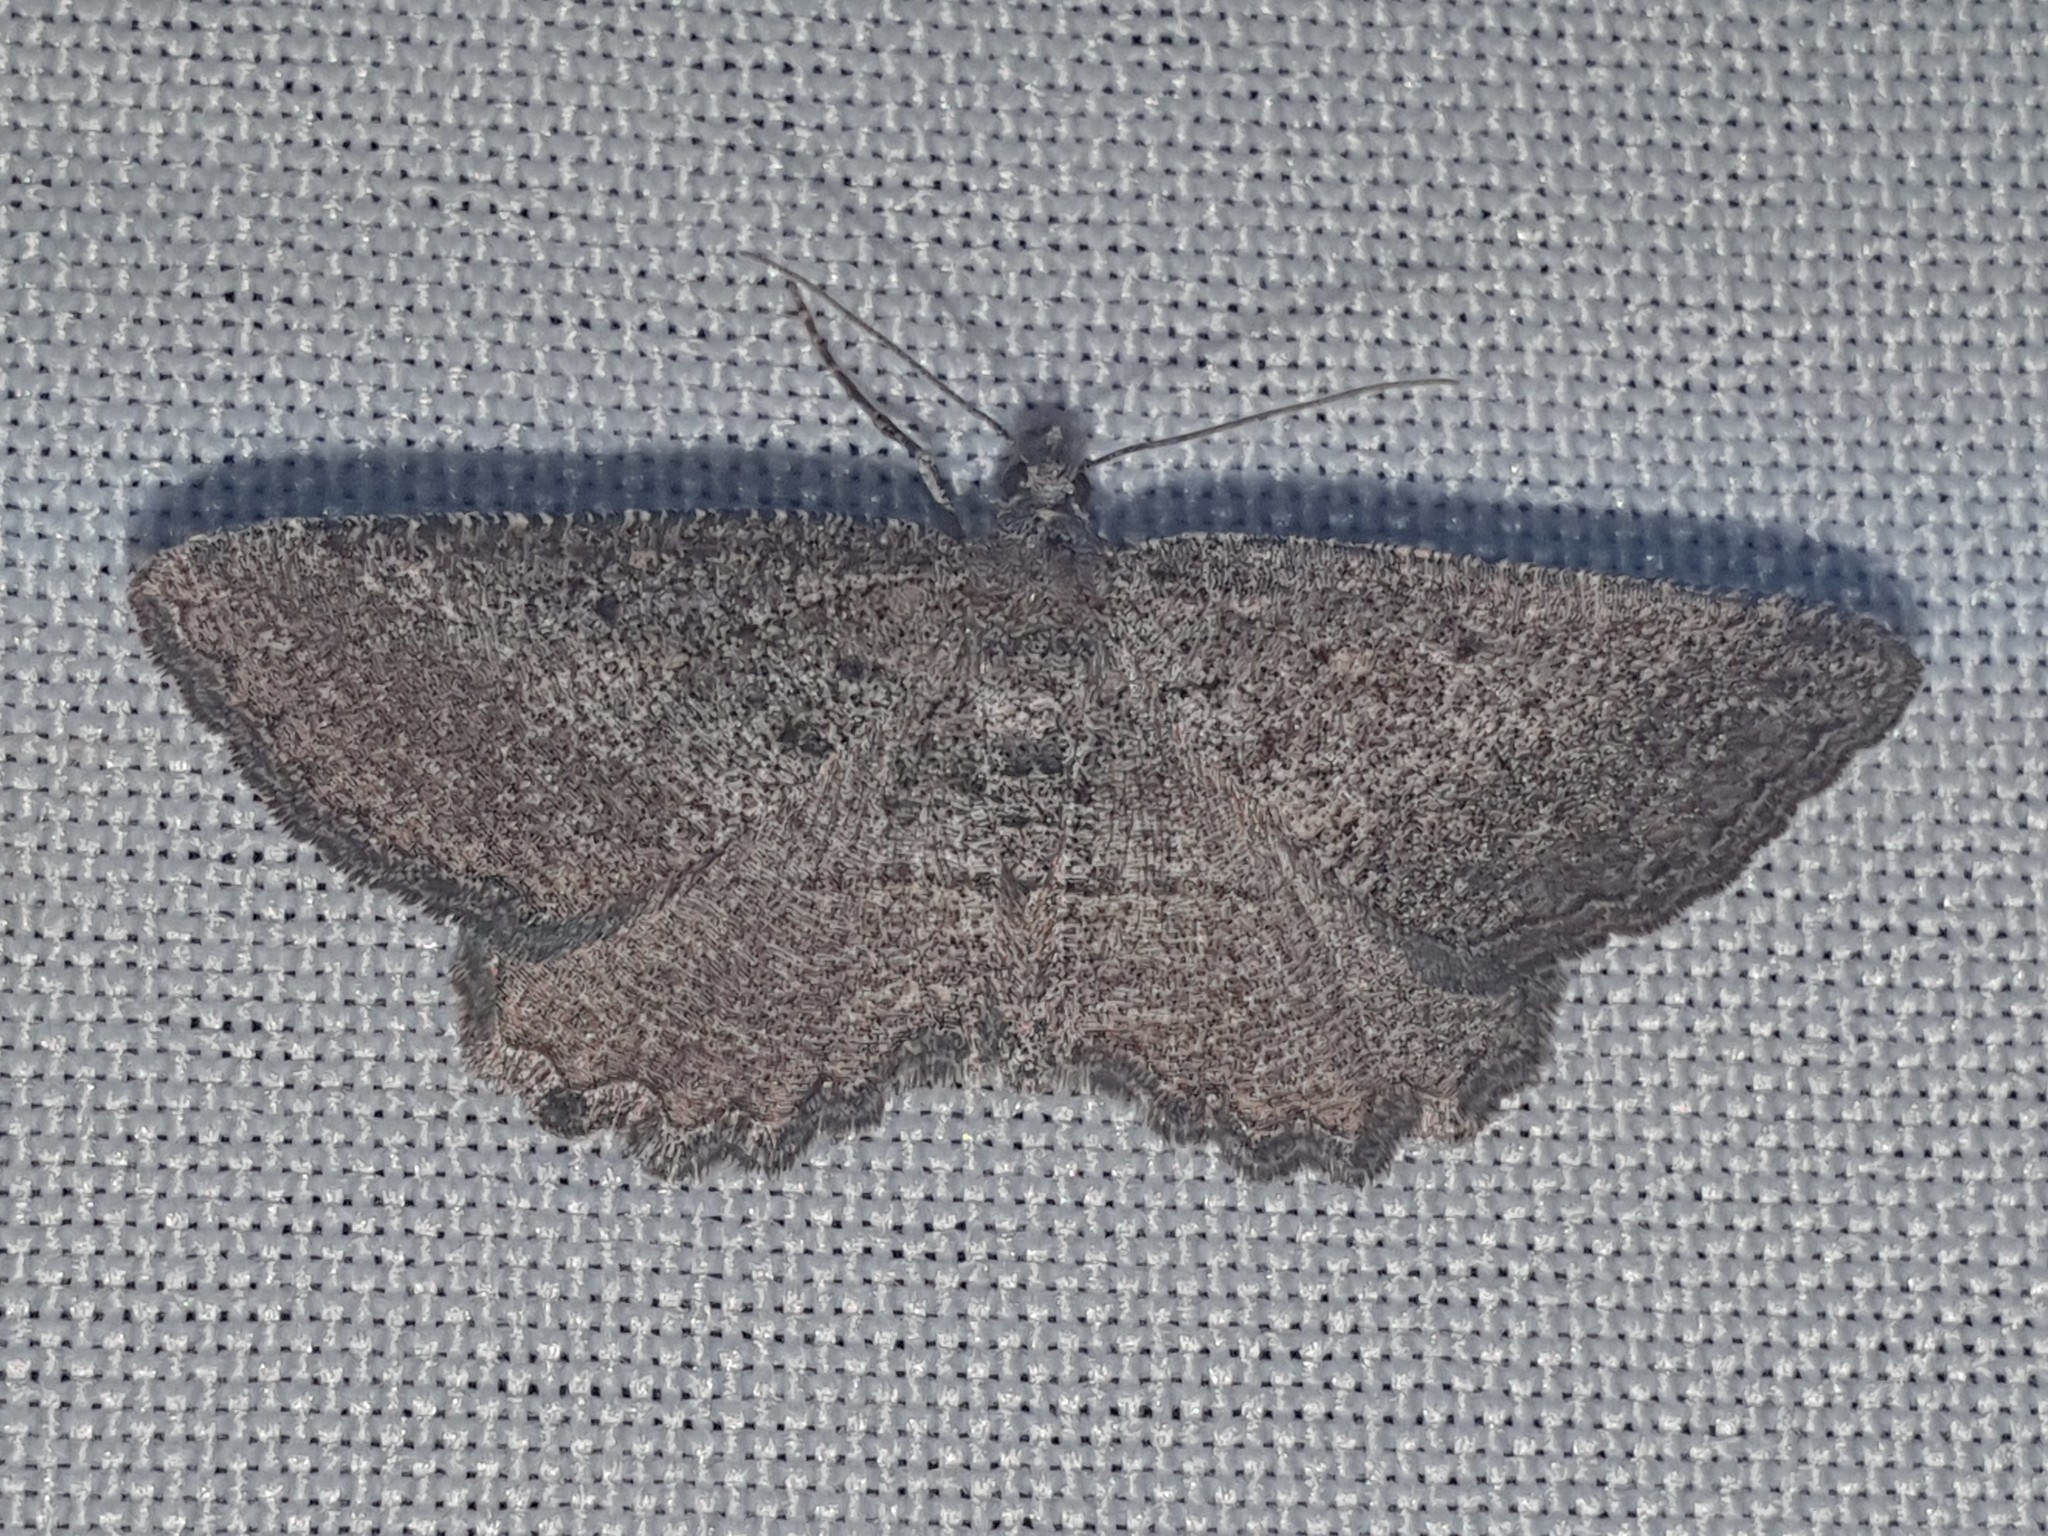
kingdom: Animalia
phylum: Arthropoda
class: Insecta
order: Lepidoptera
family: Geometridae
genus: Rhoptria
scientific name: Rhoptria asperaria
